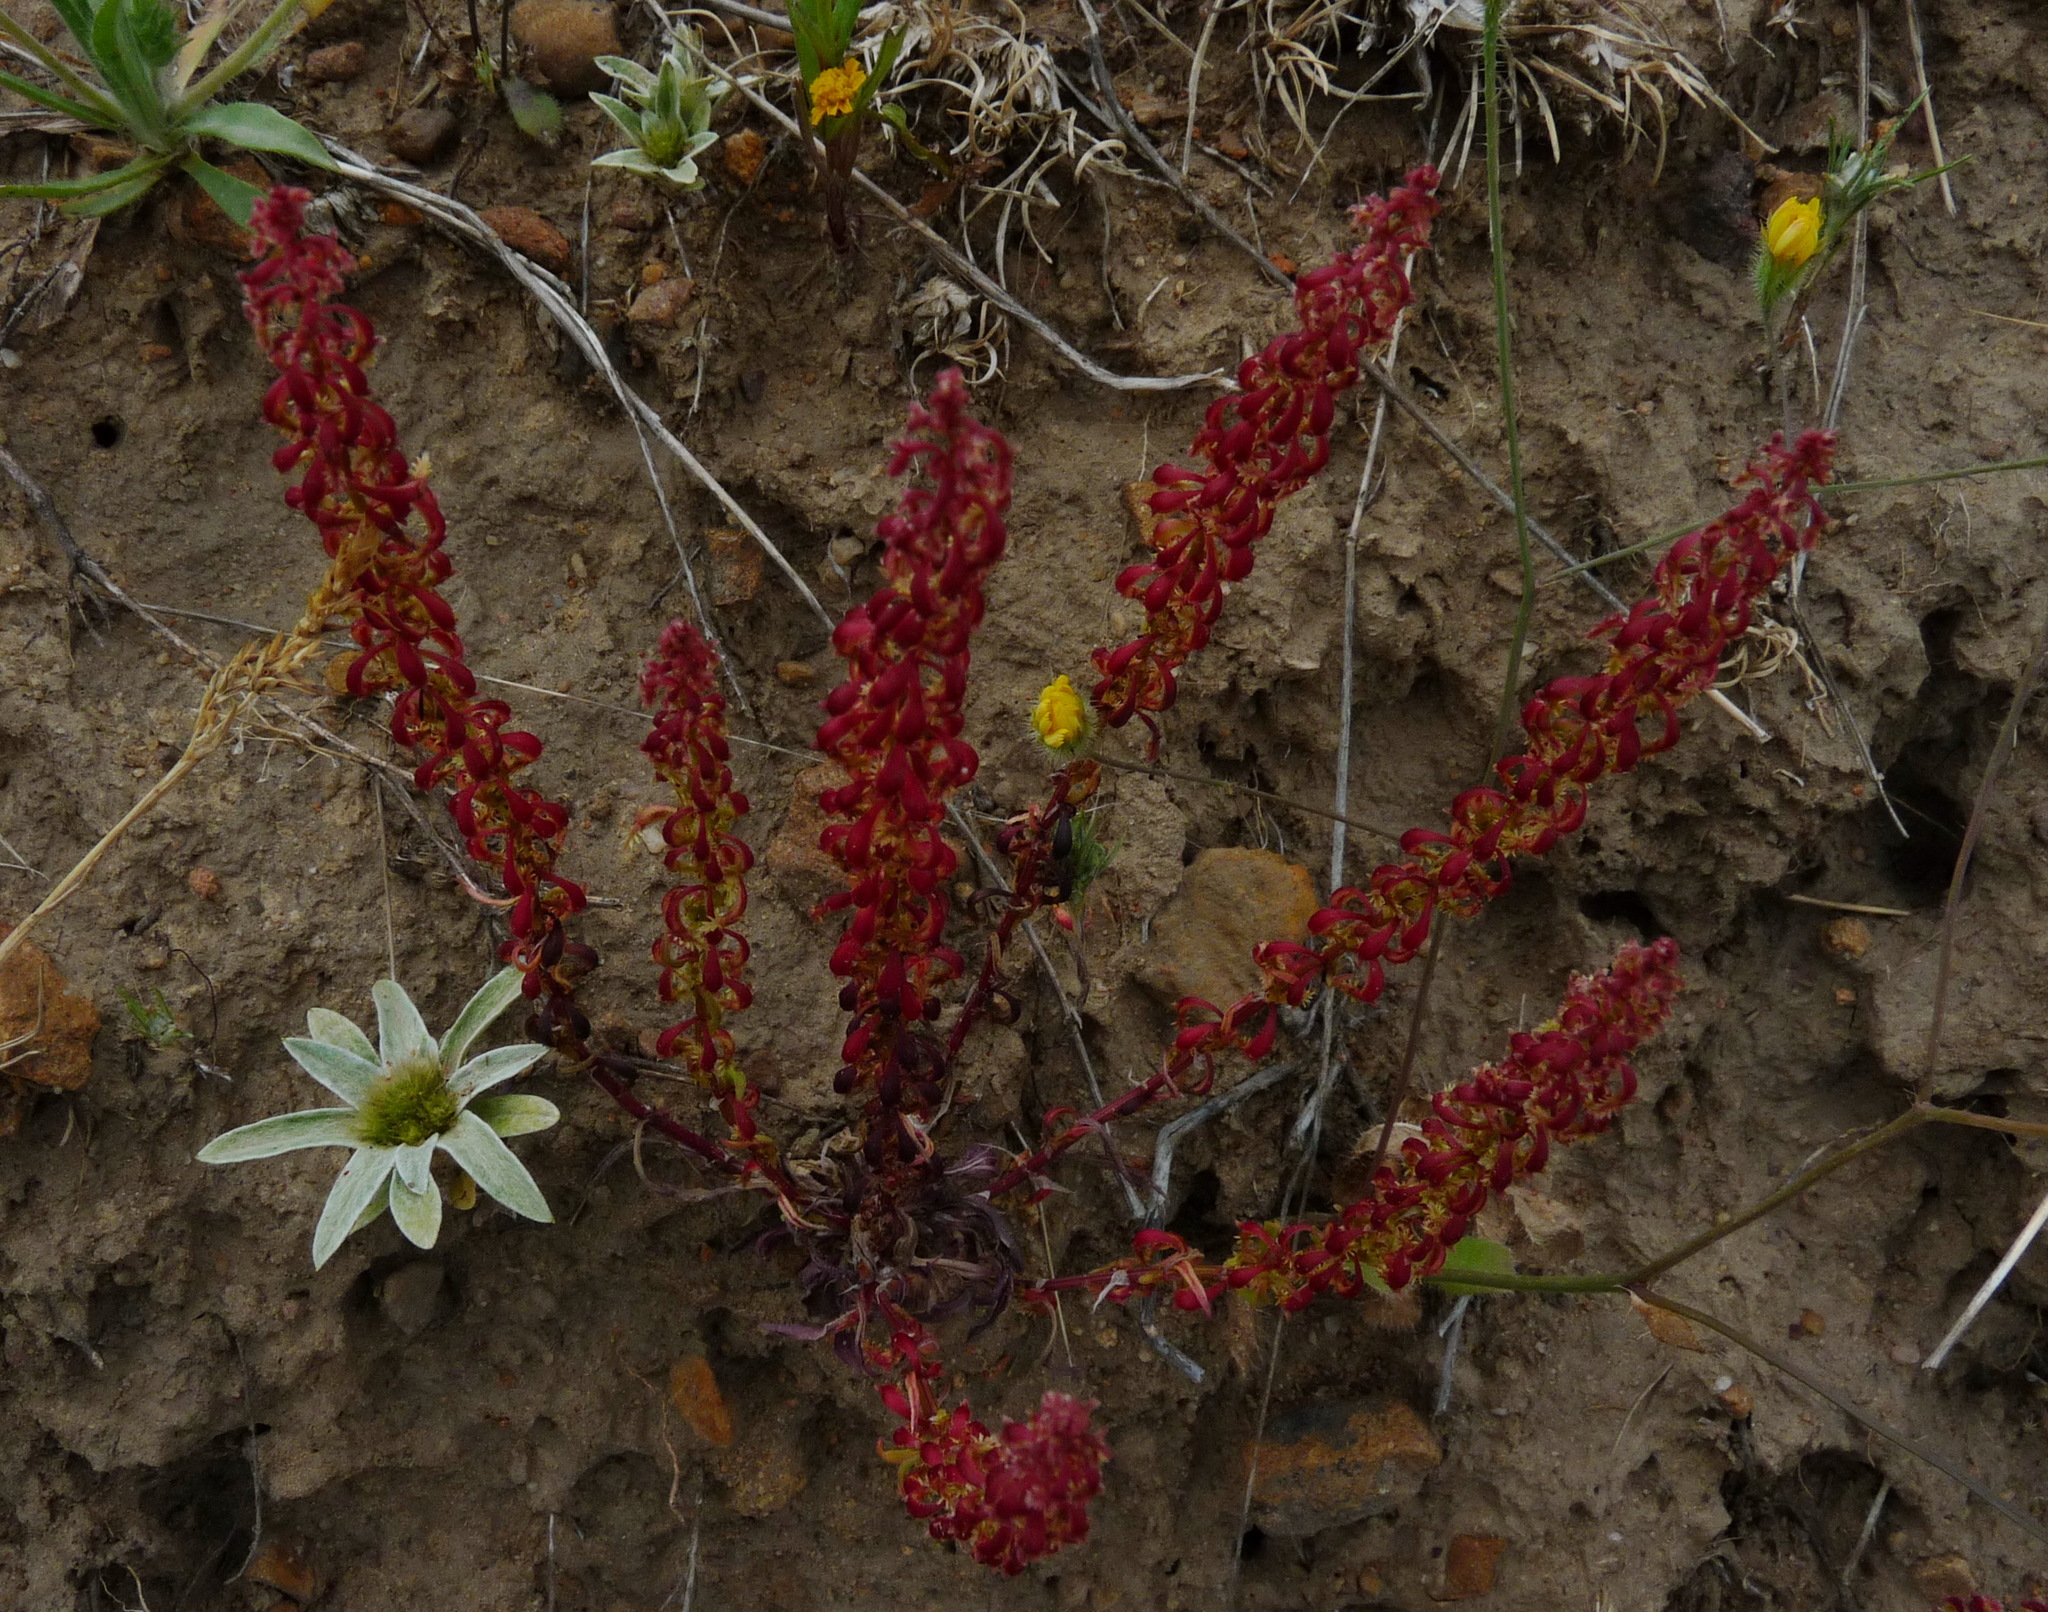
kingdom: Plantae
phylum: Tracheophyta
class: Magnoliopsida
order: Caryophyllales
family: Polygonaceae
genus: Rumex
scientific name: Rumex bucephalophorus
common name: Red dock
